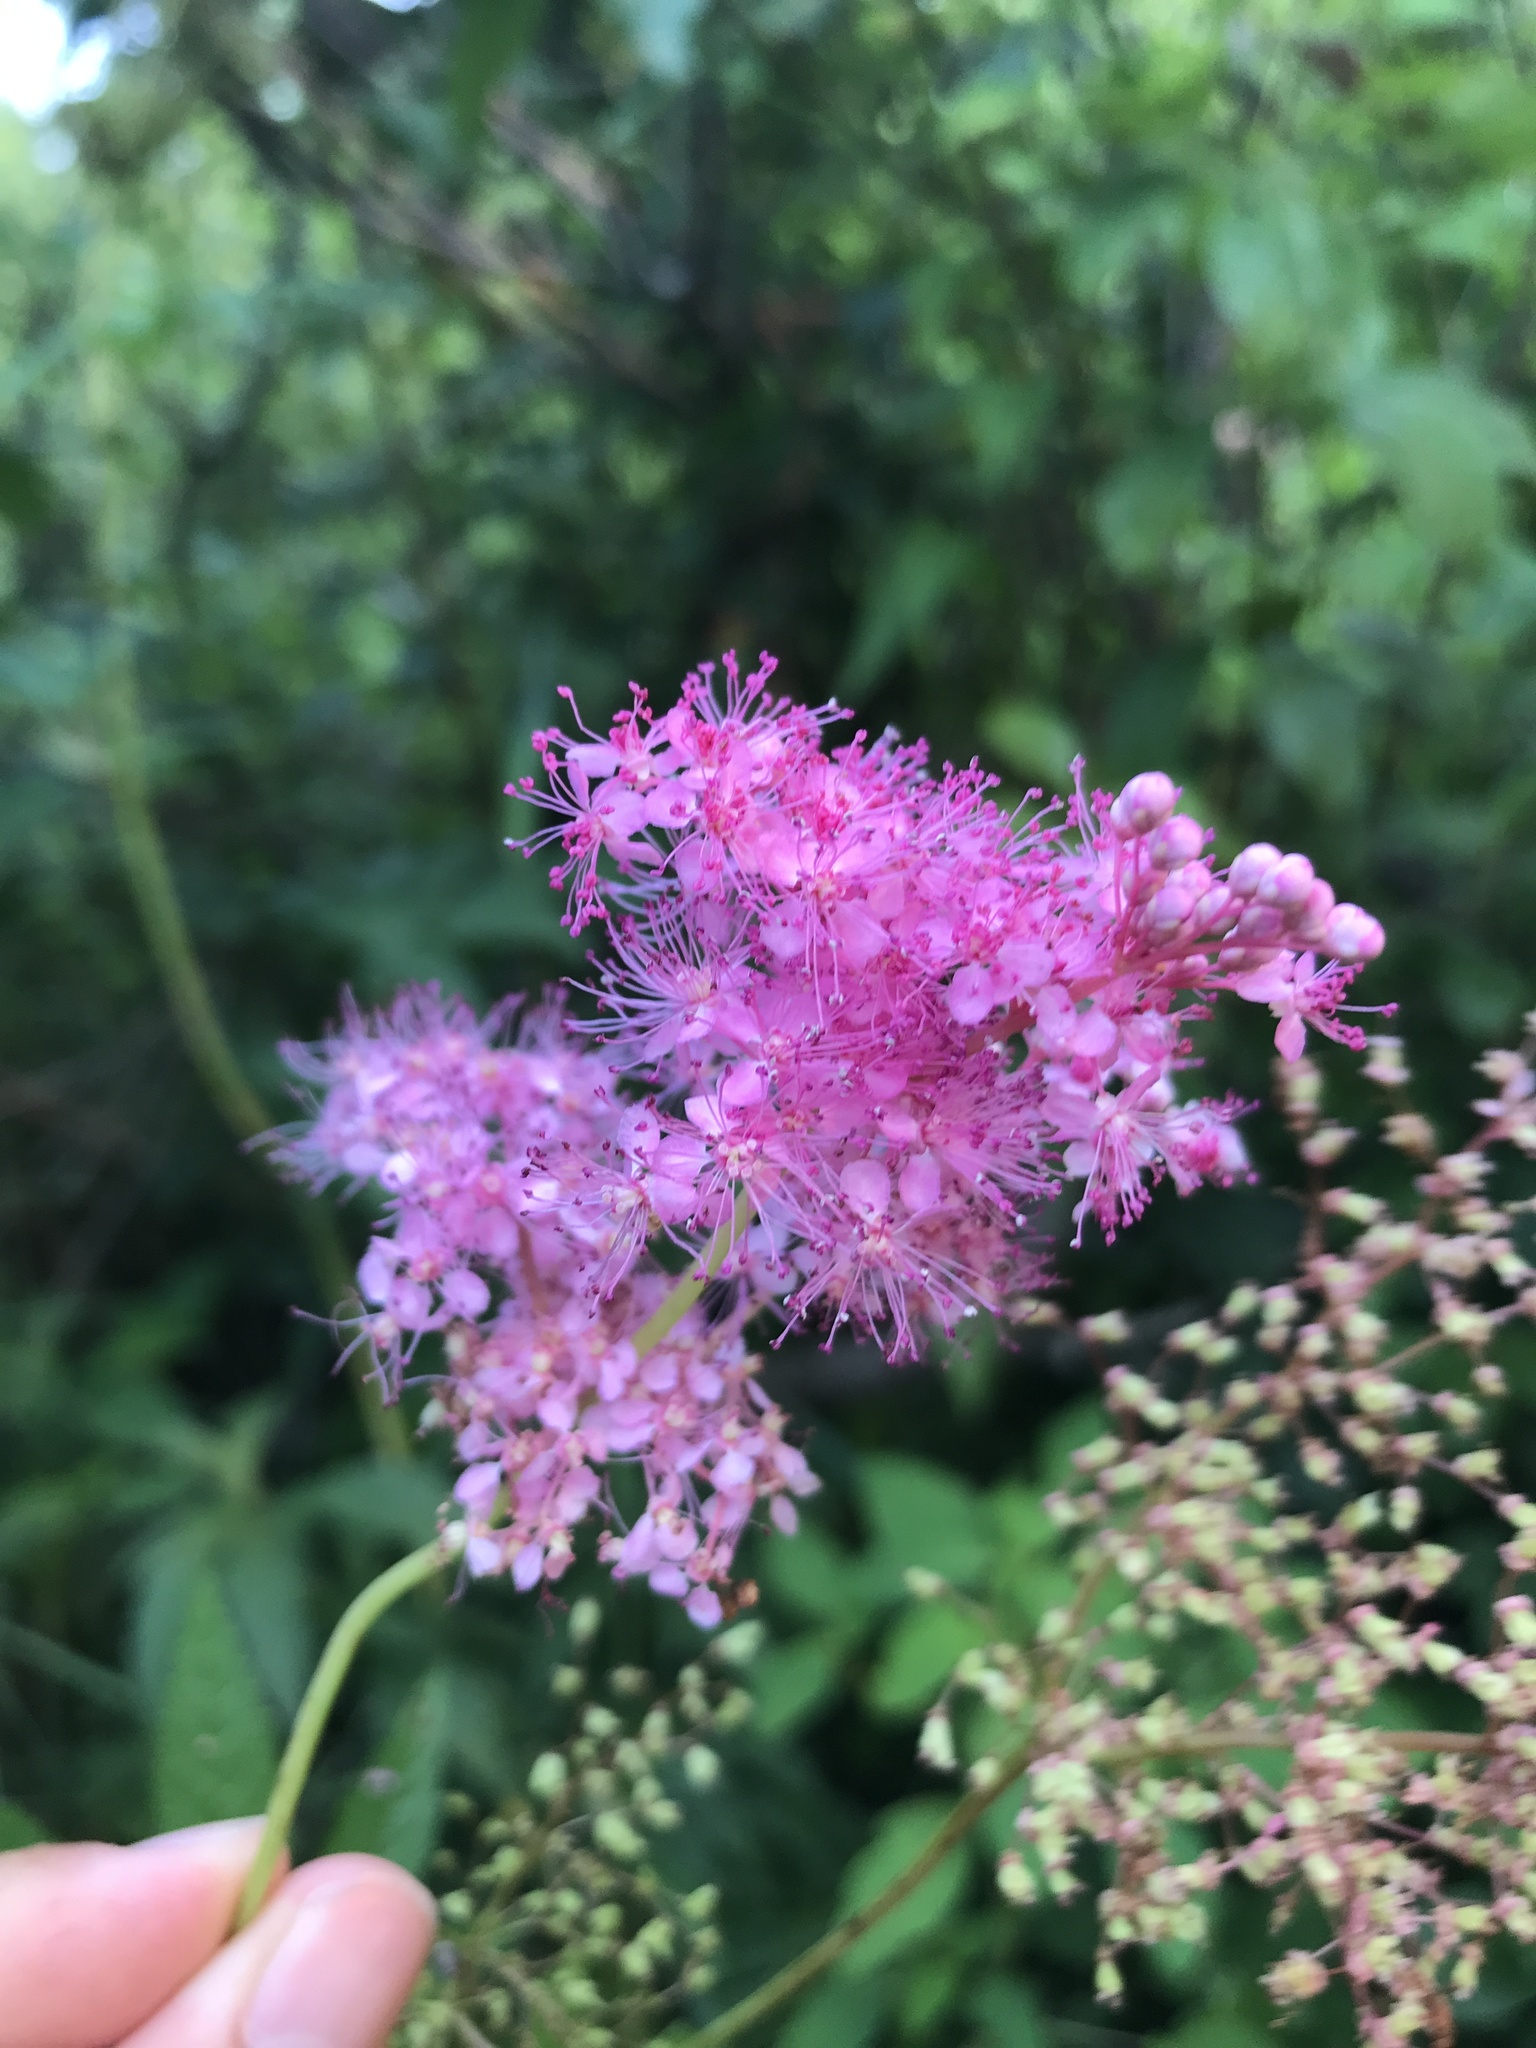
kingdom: Plantae
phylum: Tracheophyta
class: Magnoliopsida
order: Rosales
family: Rosaceae
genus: Filipendula
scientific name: Filipendula rubra
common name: Queen-of-the-prairie
